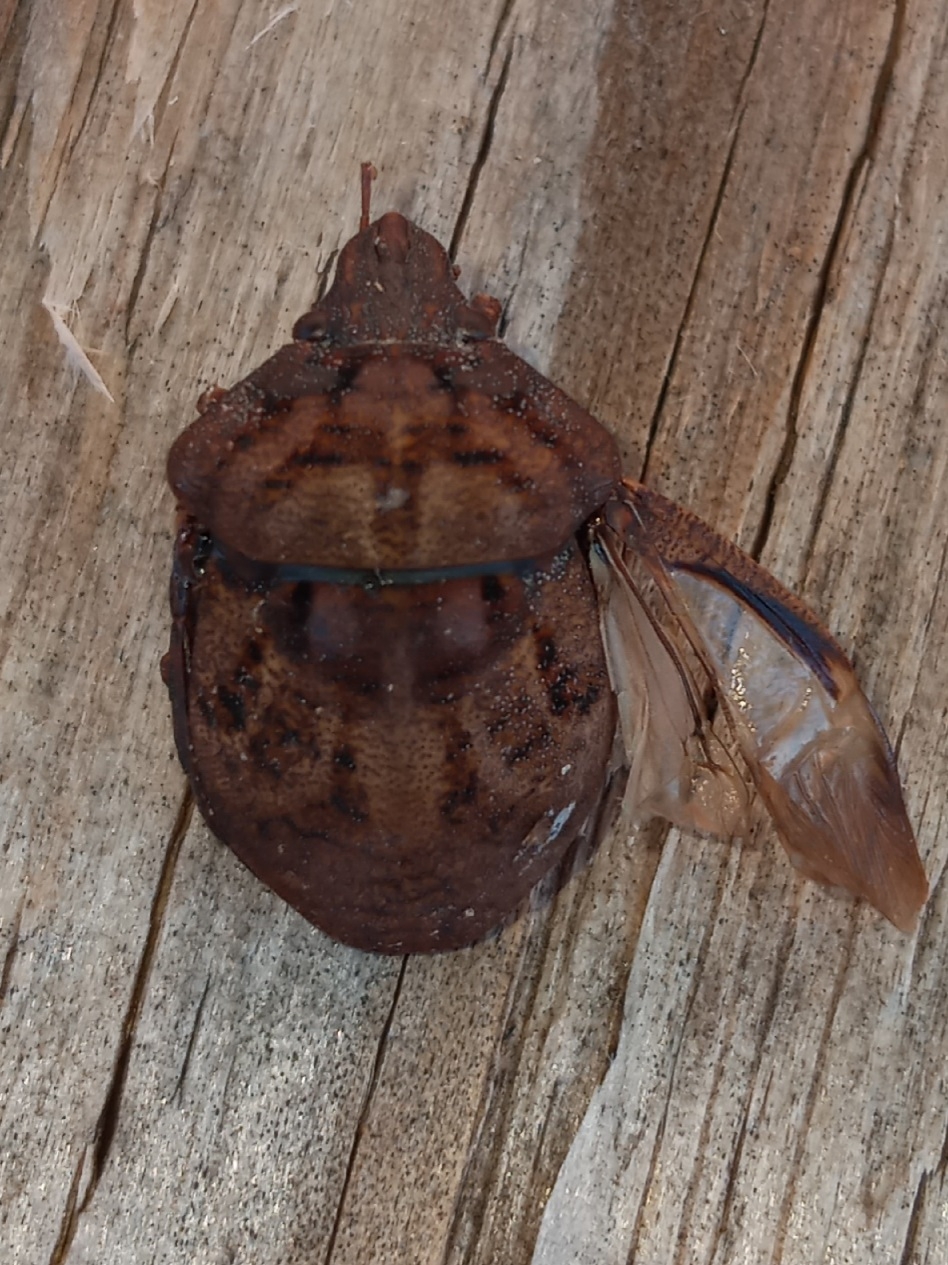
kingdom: Animalia
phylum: Arthropoda
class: Insecta
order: Hemiptera
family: Scutelleridae
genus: Tetyra
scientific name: Tetyra bipunctata
